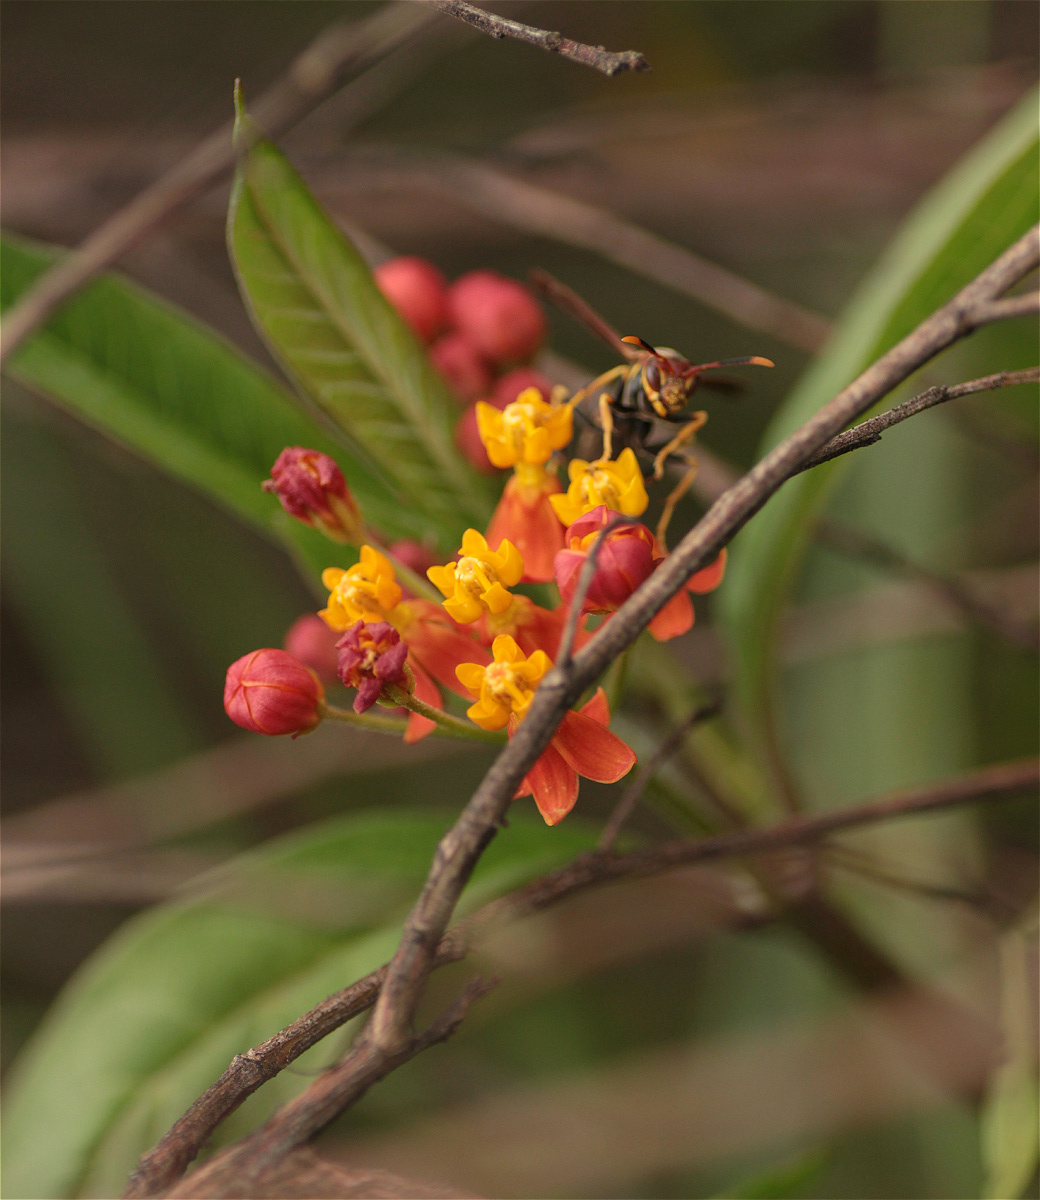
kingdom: Plantae
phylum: Tracheophyta
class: Magnoliopsida
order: Gentianales
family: Apocynaceae
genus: Asclepias
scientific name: Asclepias curassavica
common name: Bloodflower
